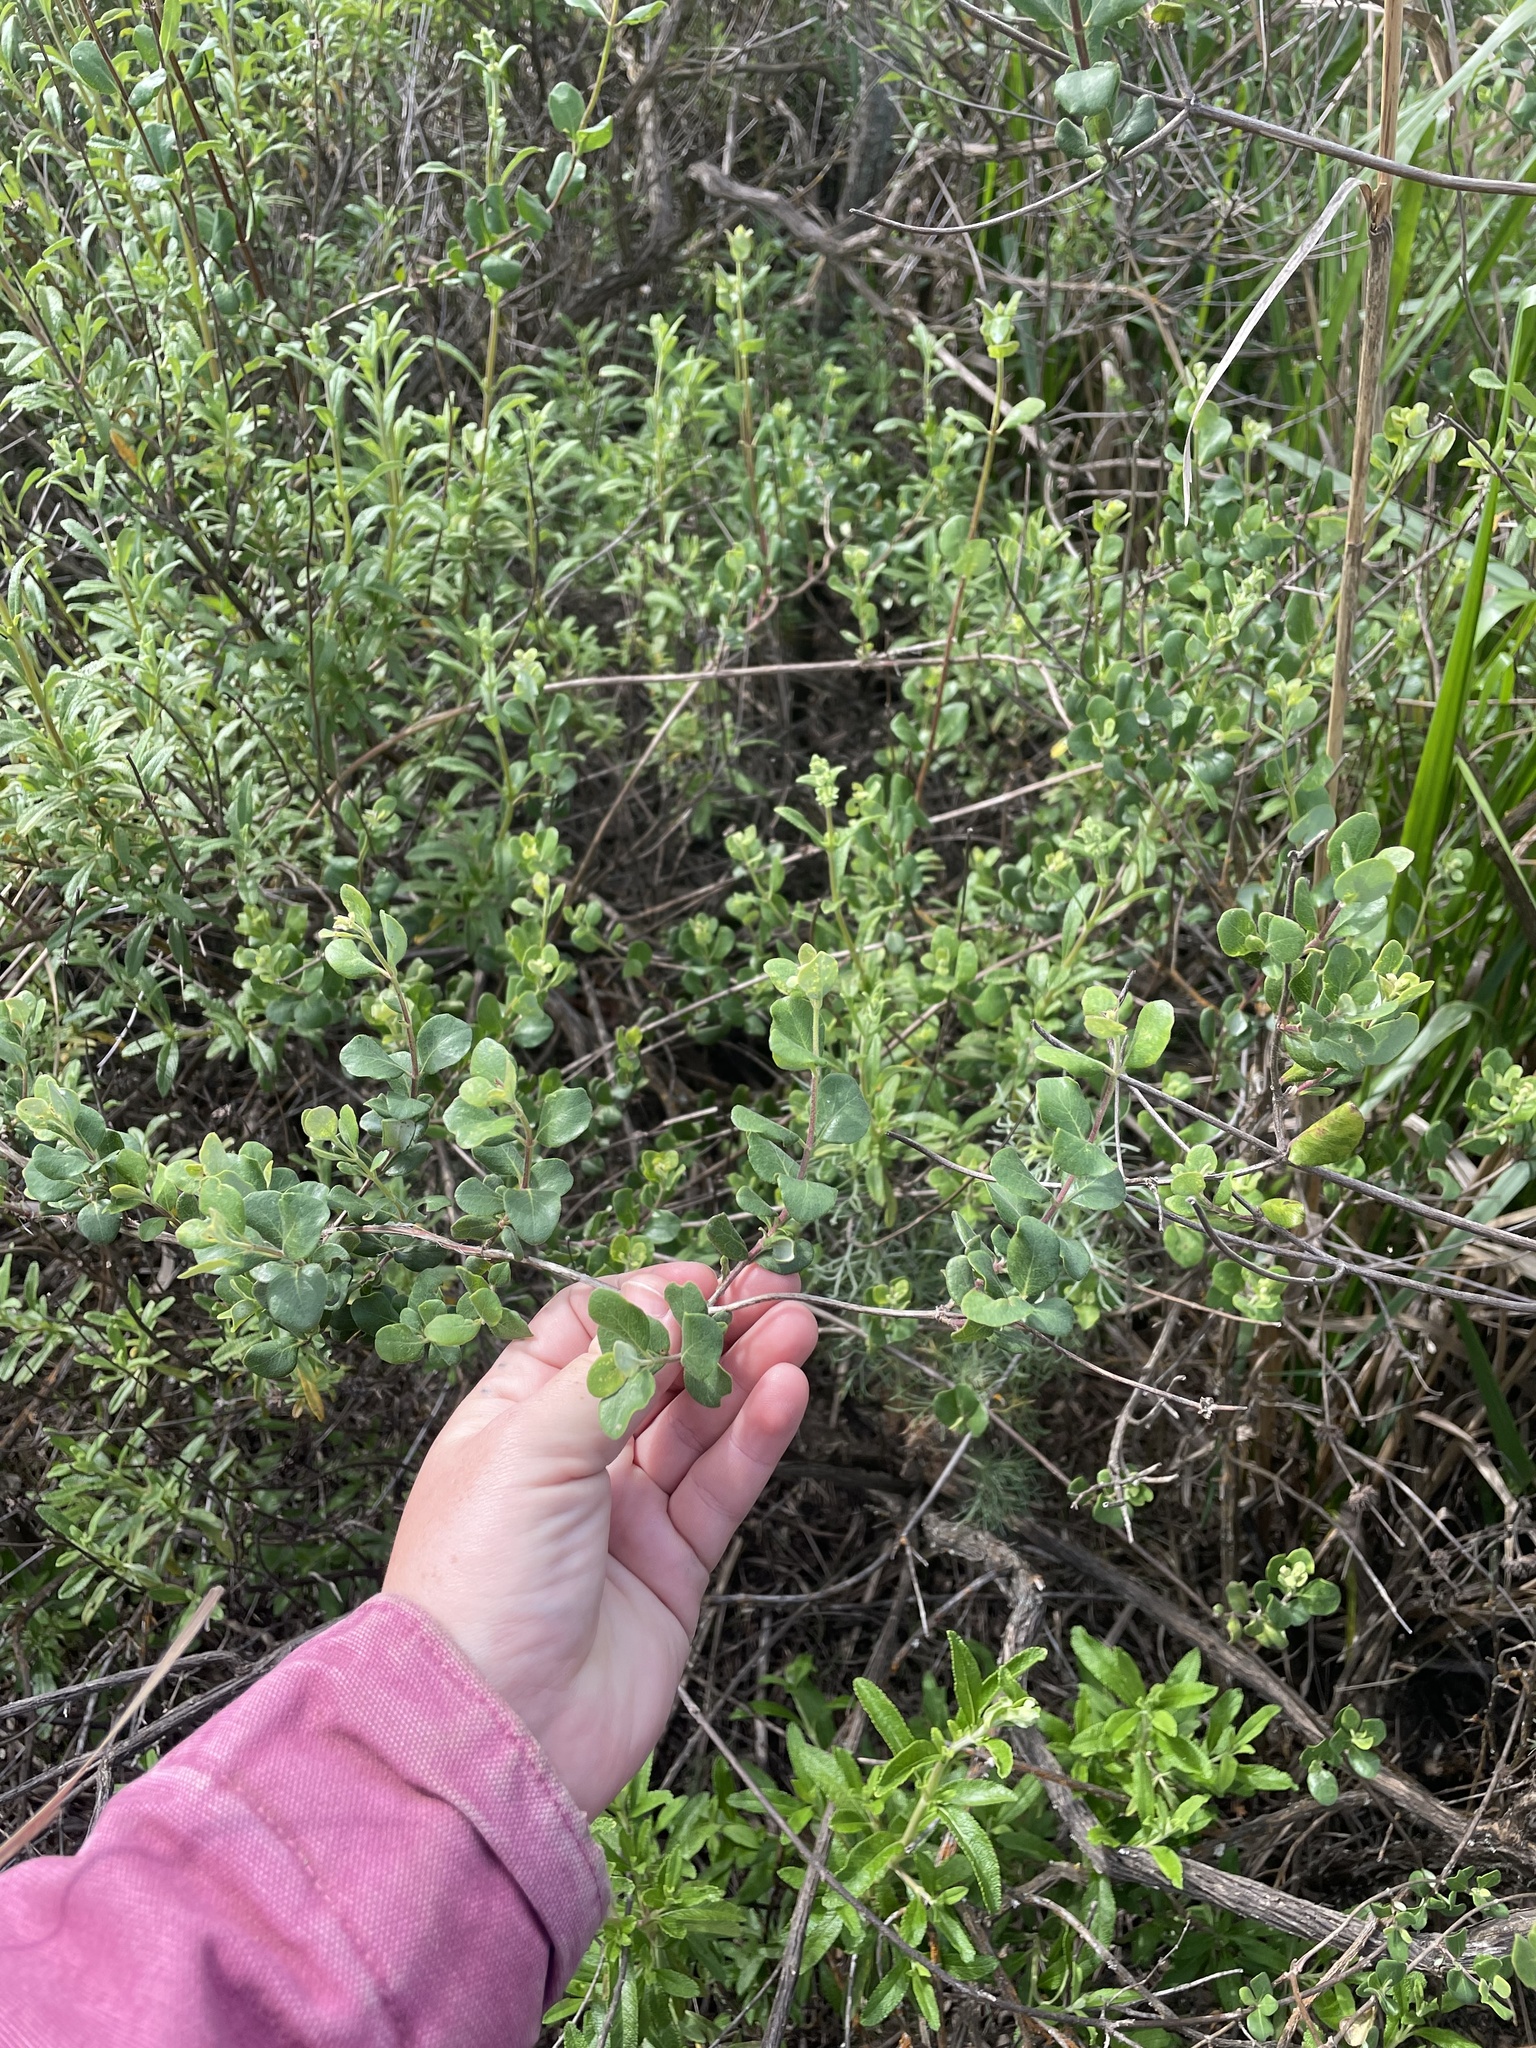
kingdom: Plantae
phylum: Tracheophyta
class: Magnoliopsida
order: Dipsacales
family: Caprifoliaceae
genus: Lonicera
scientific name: Lonicera subspicata
